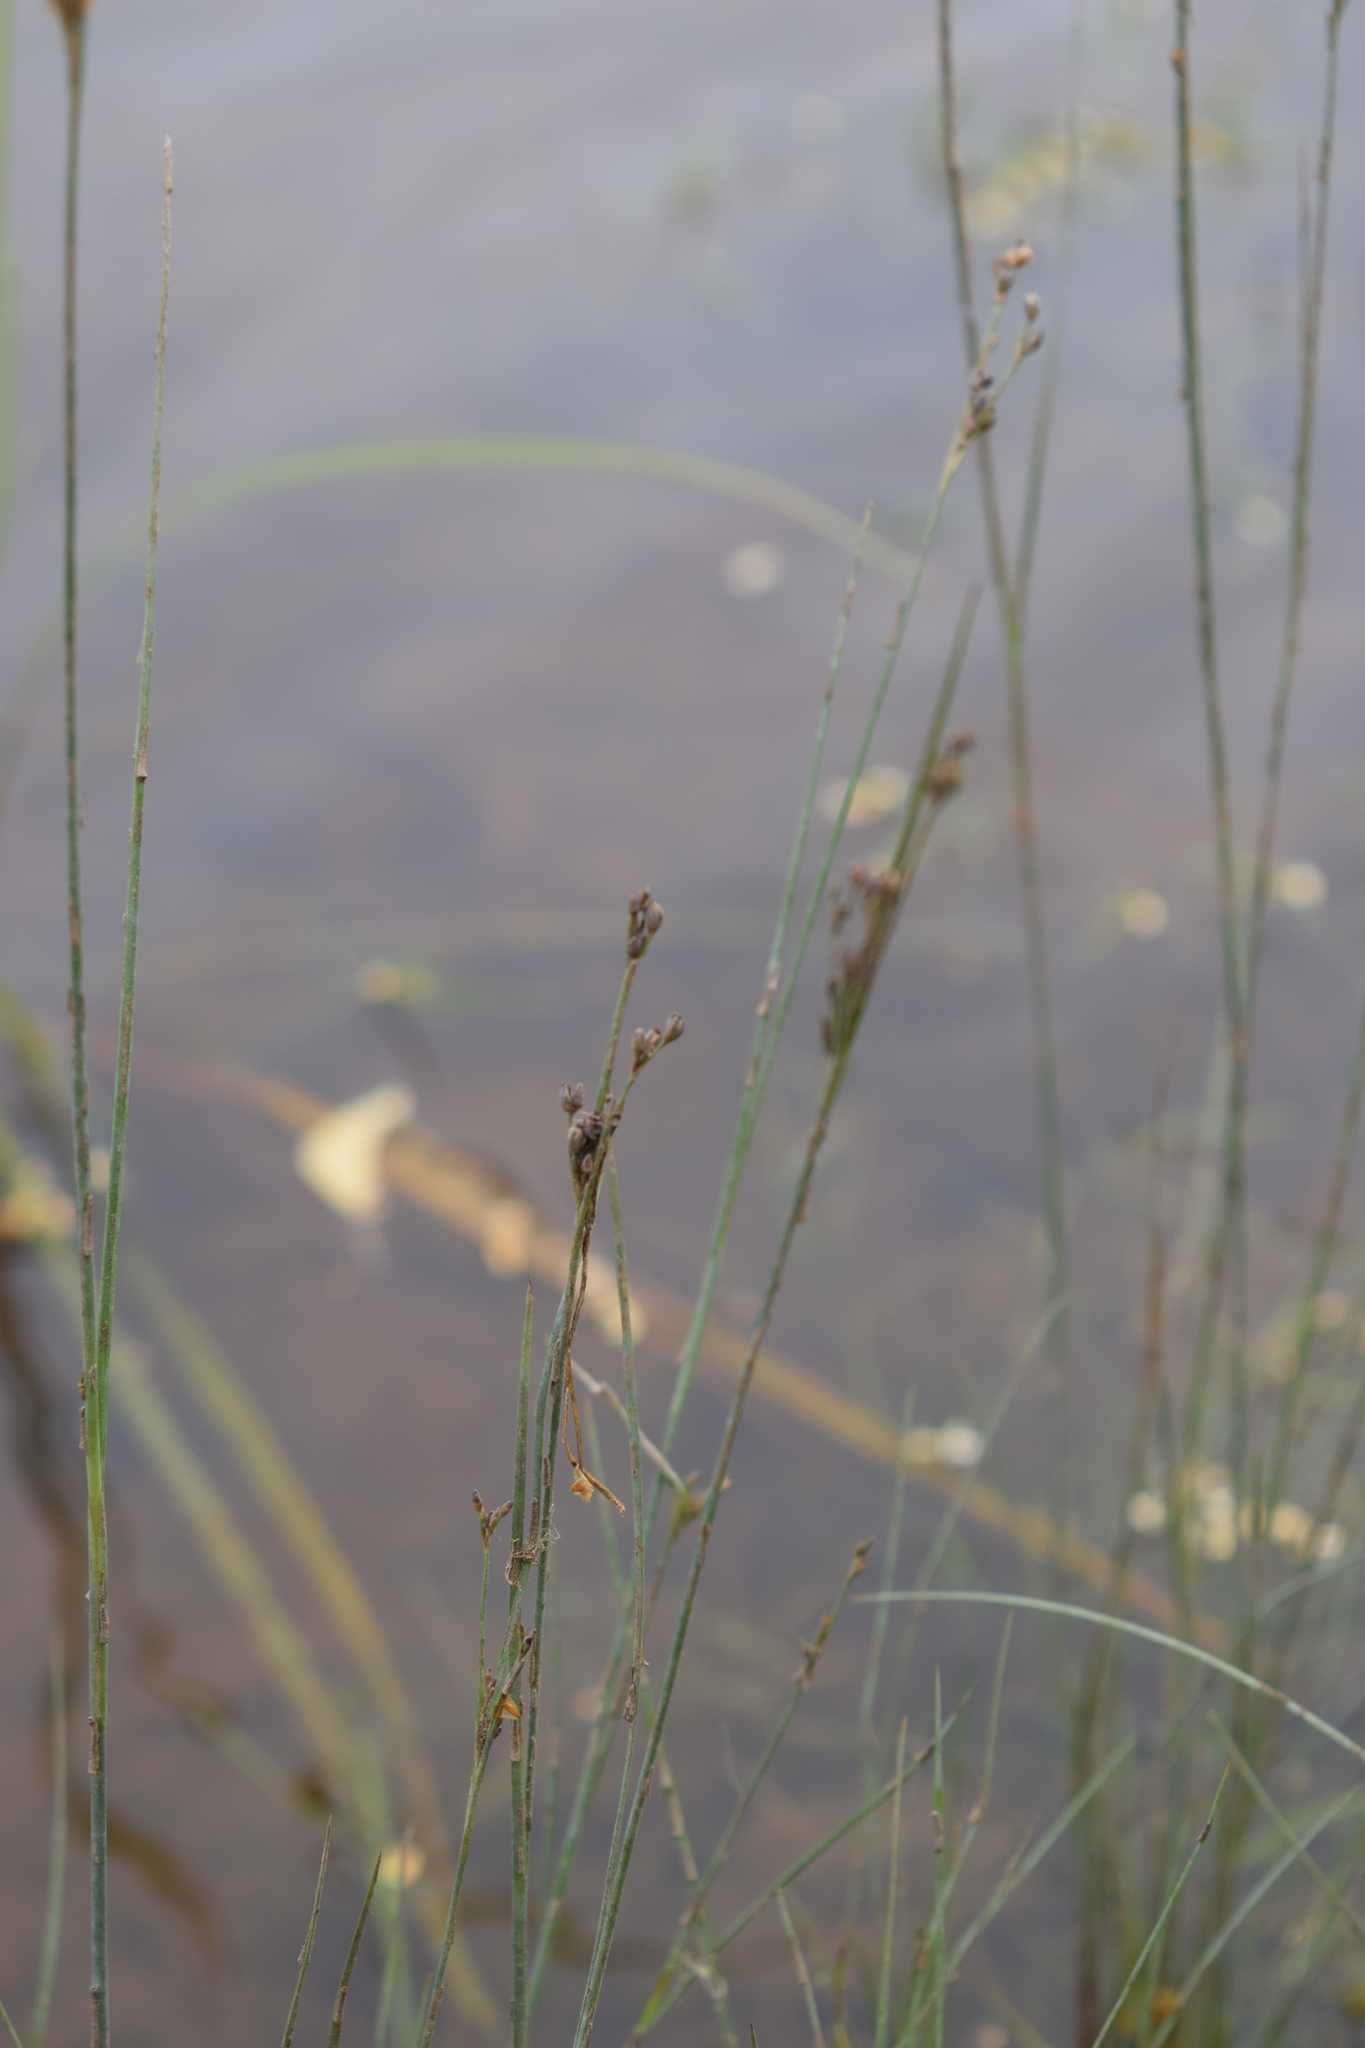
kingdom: Plantae
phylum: Tracheophyta
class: Liliopsida
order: Poales
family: Juncaceae
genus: Juncus
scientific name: Juncus compressus
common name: Round-fruited rush
